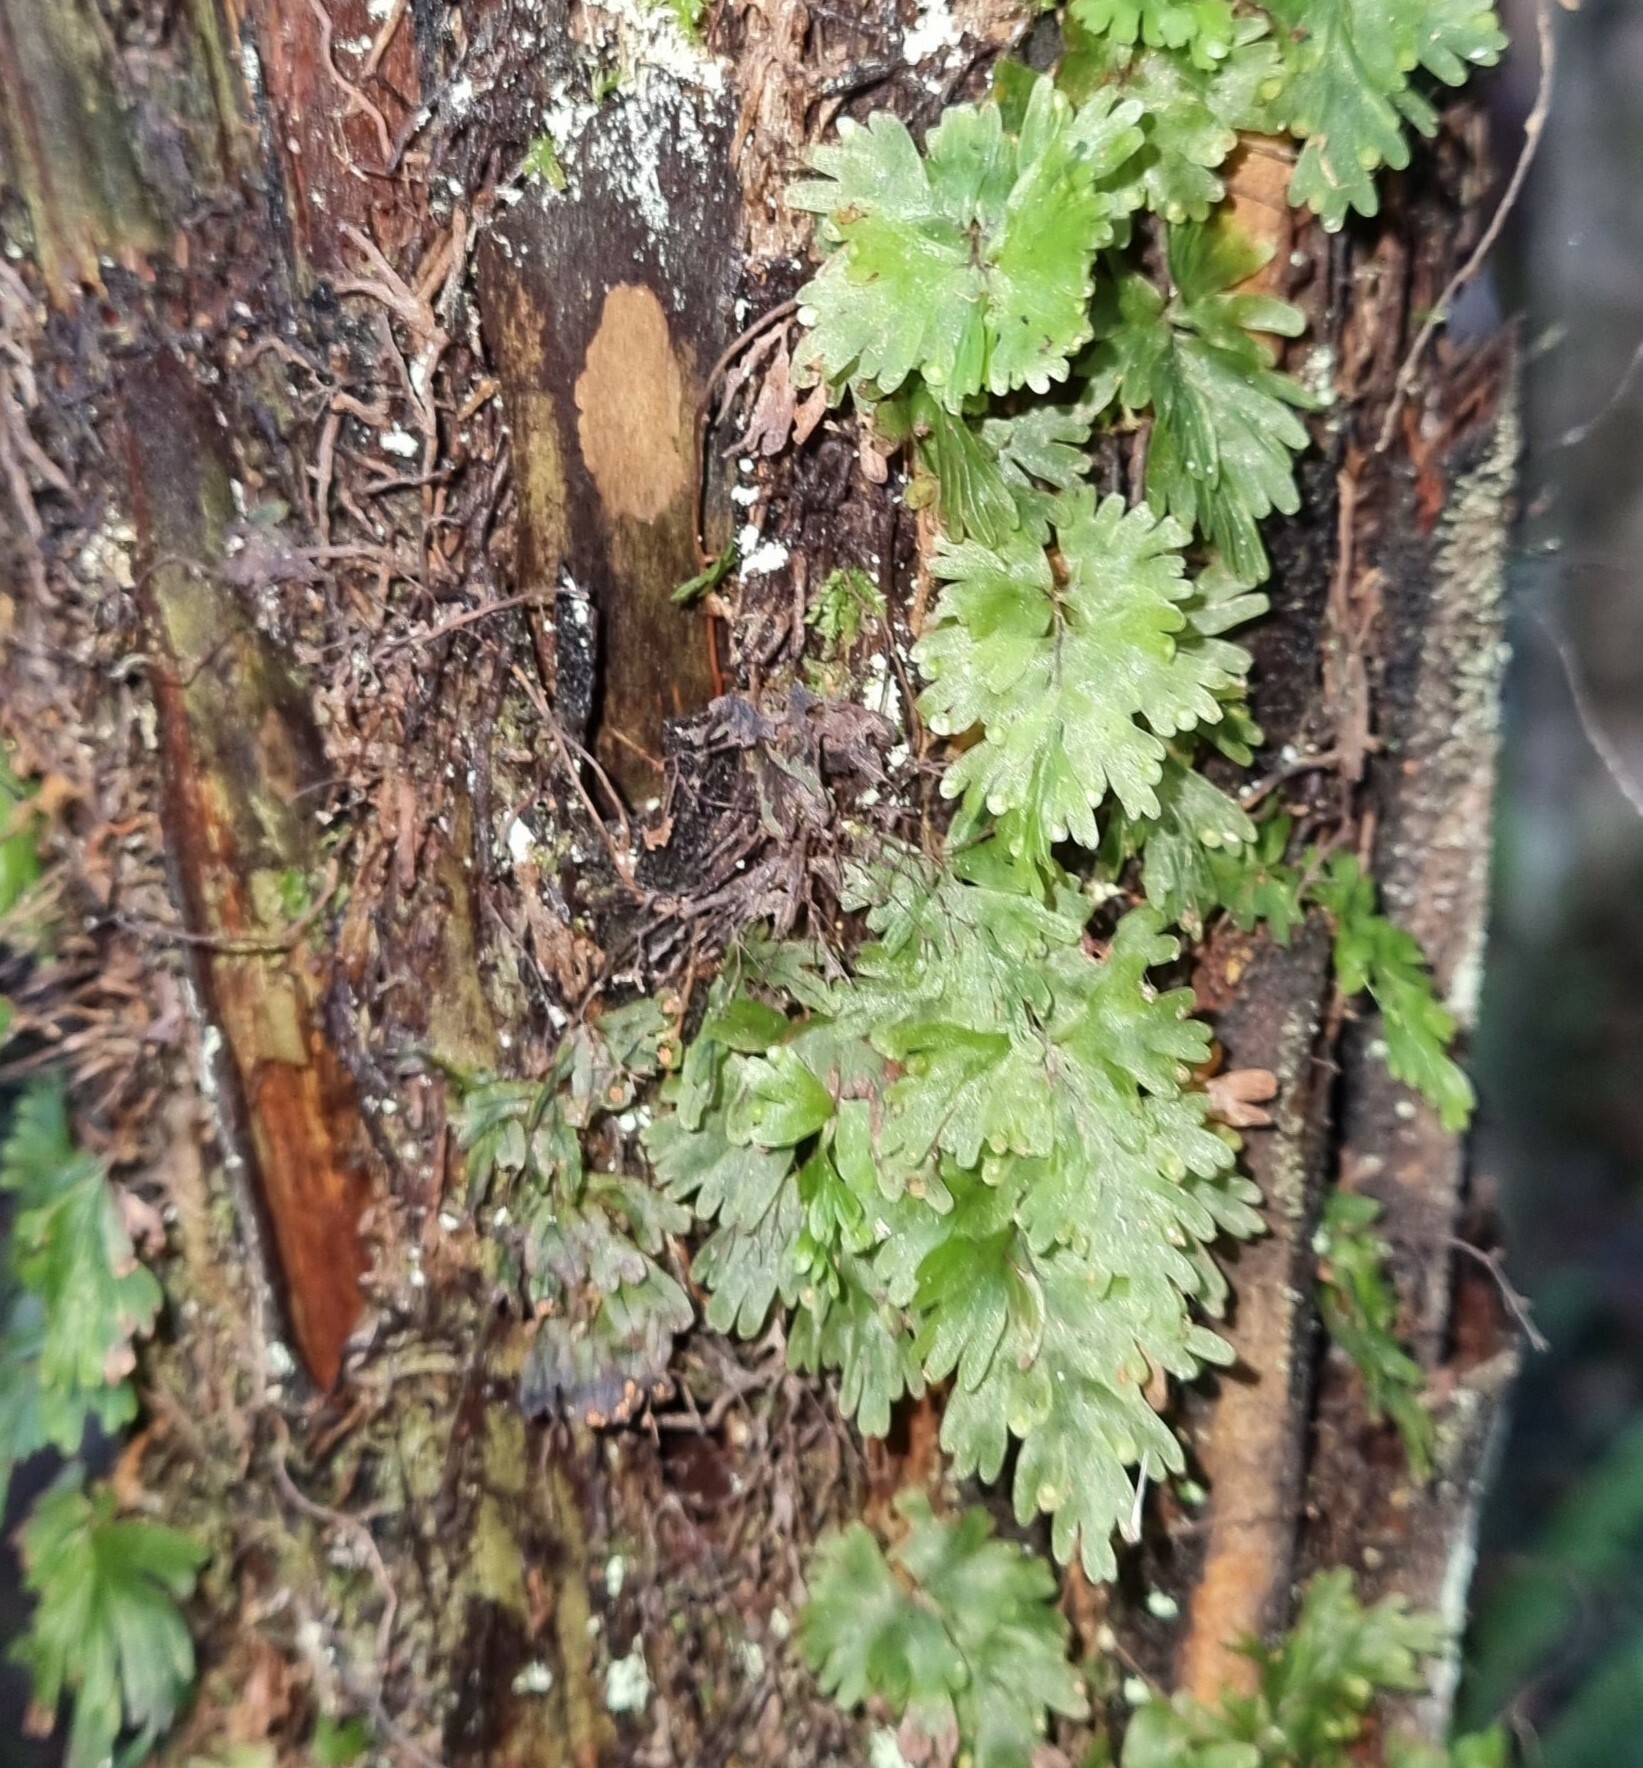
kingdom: Plantae
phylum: Tracheophyta
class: Polypodiopsida
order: Hymenophyllales
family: Hymenophyllaceae
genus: Hymenophyllum
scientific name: Hymenophyllum flabellatum
